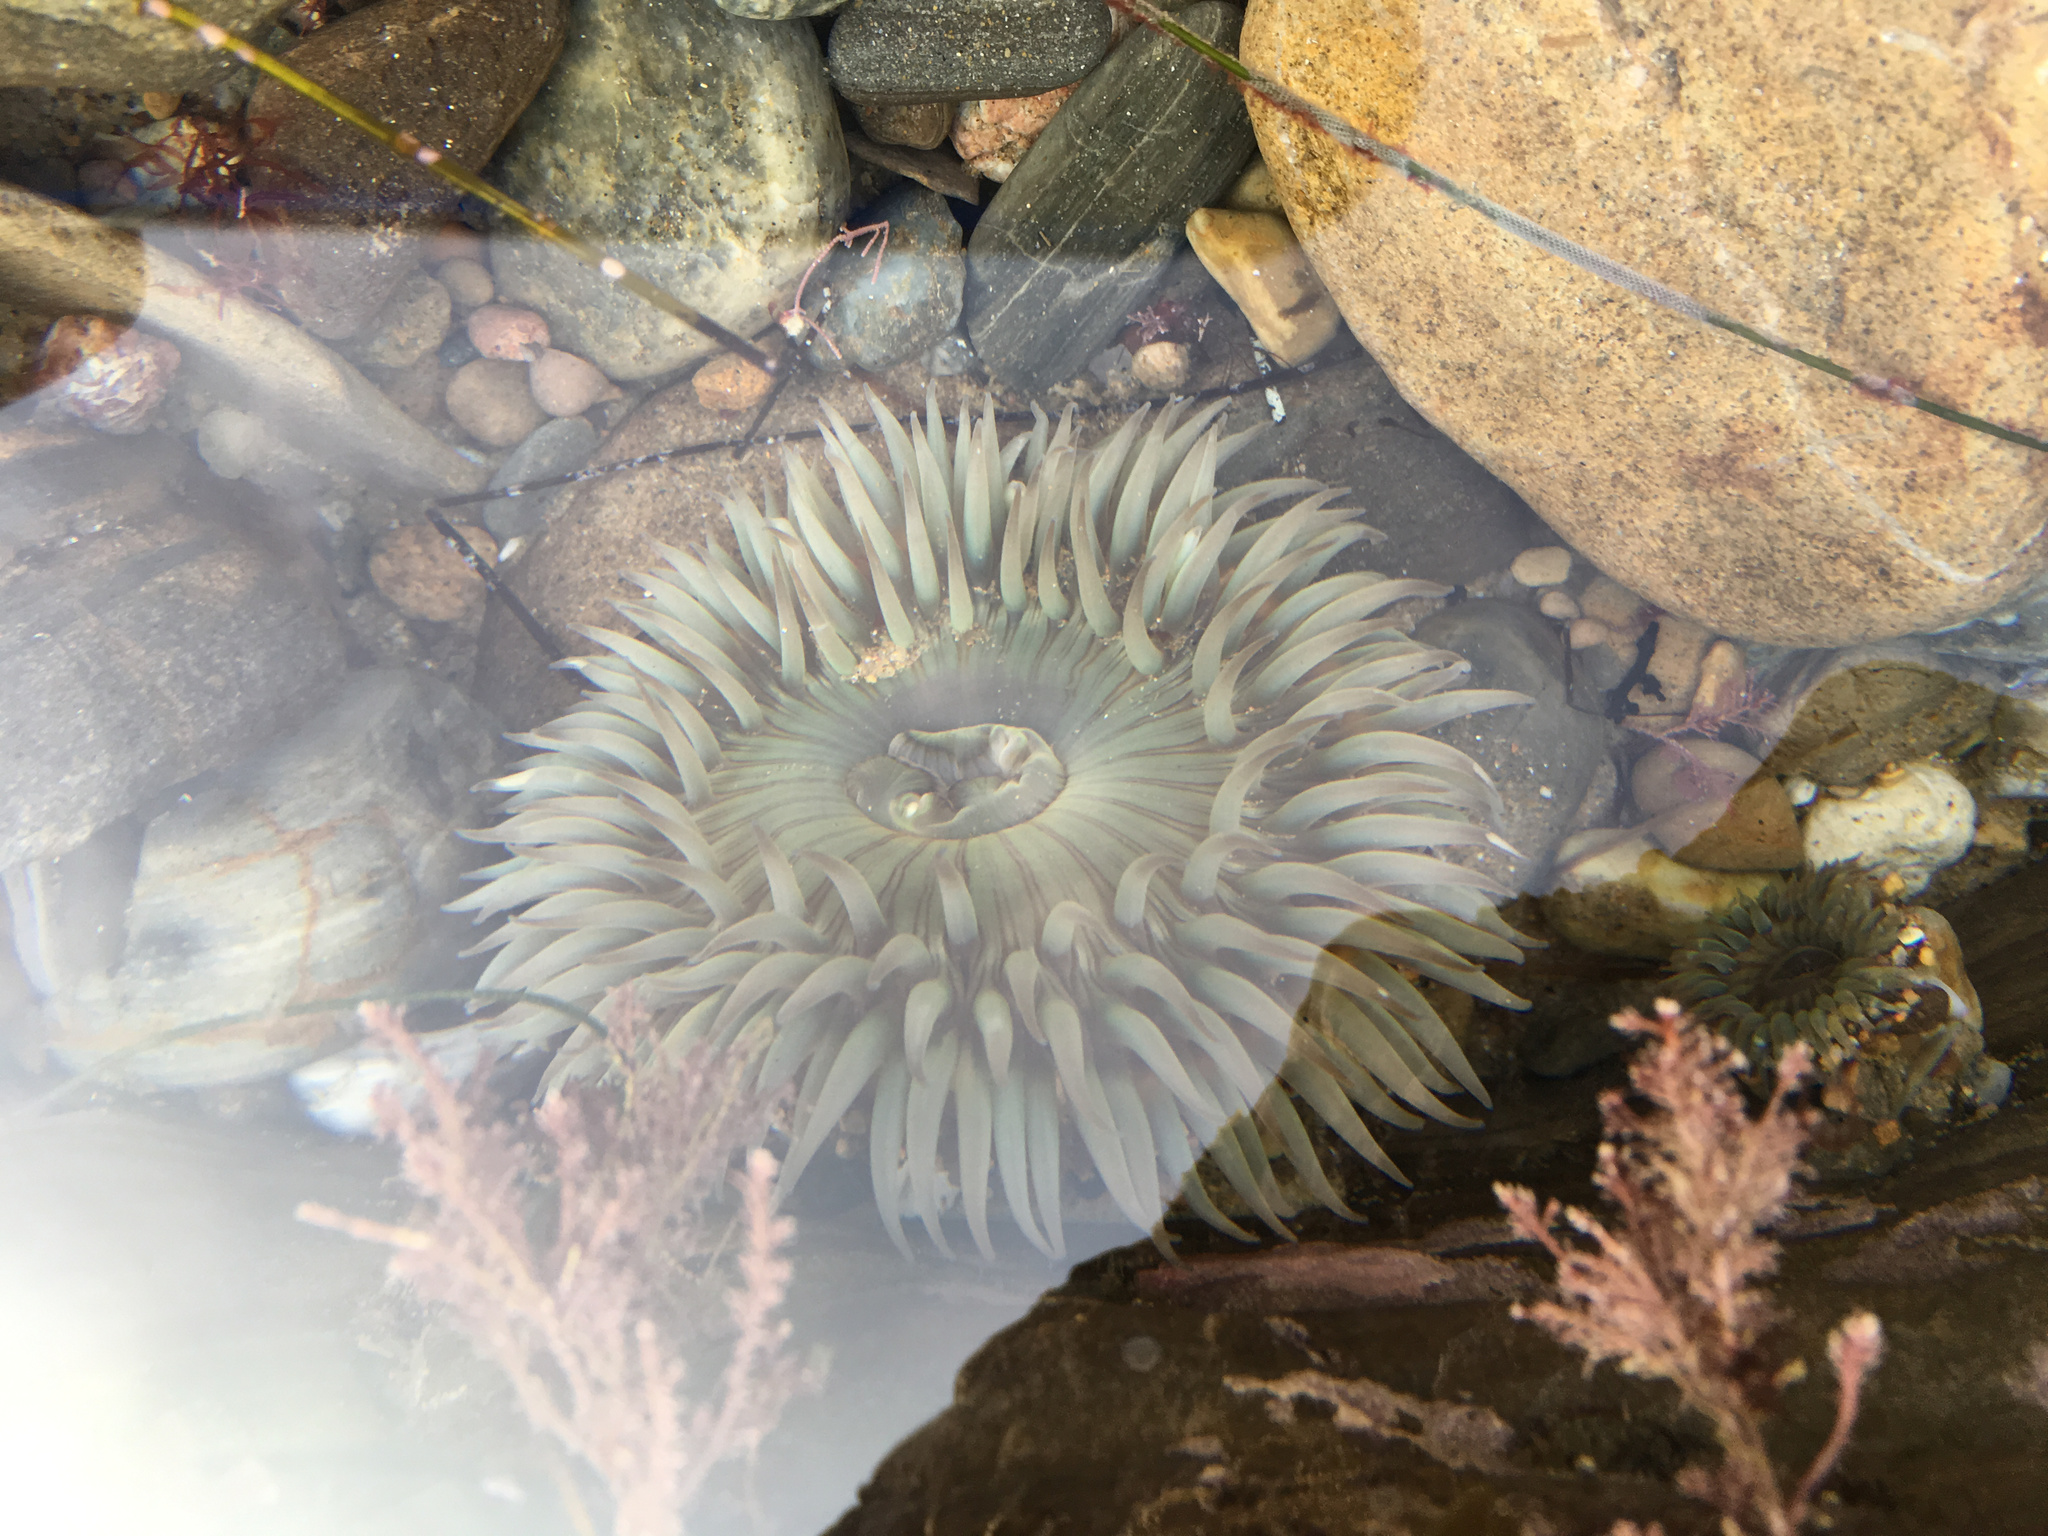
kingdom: Animalia
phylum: Cnidaria
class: Anthozoa
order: Actiniaria
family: Actiniidae
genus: Anthopleura
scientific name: Anthopleura sola
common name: Sun anemone
